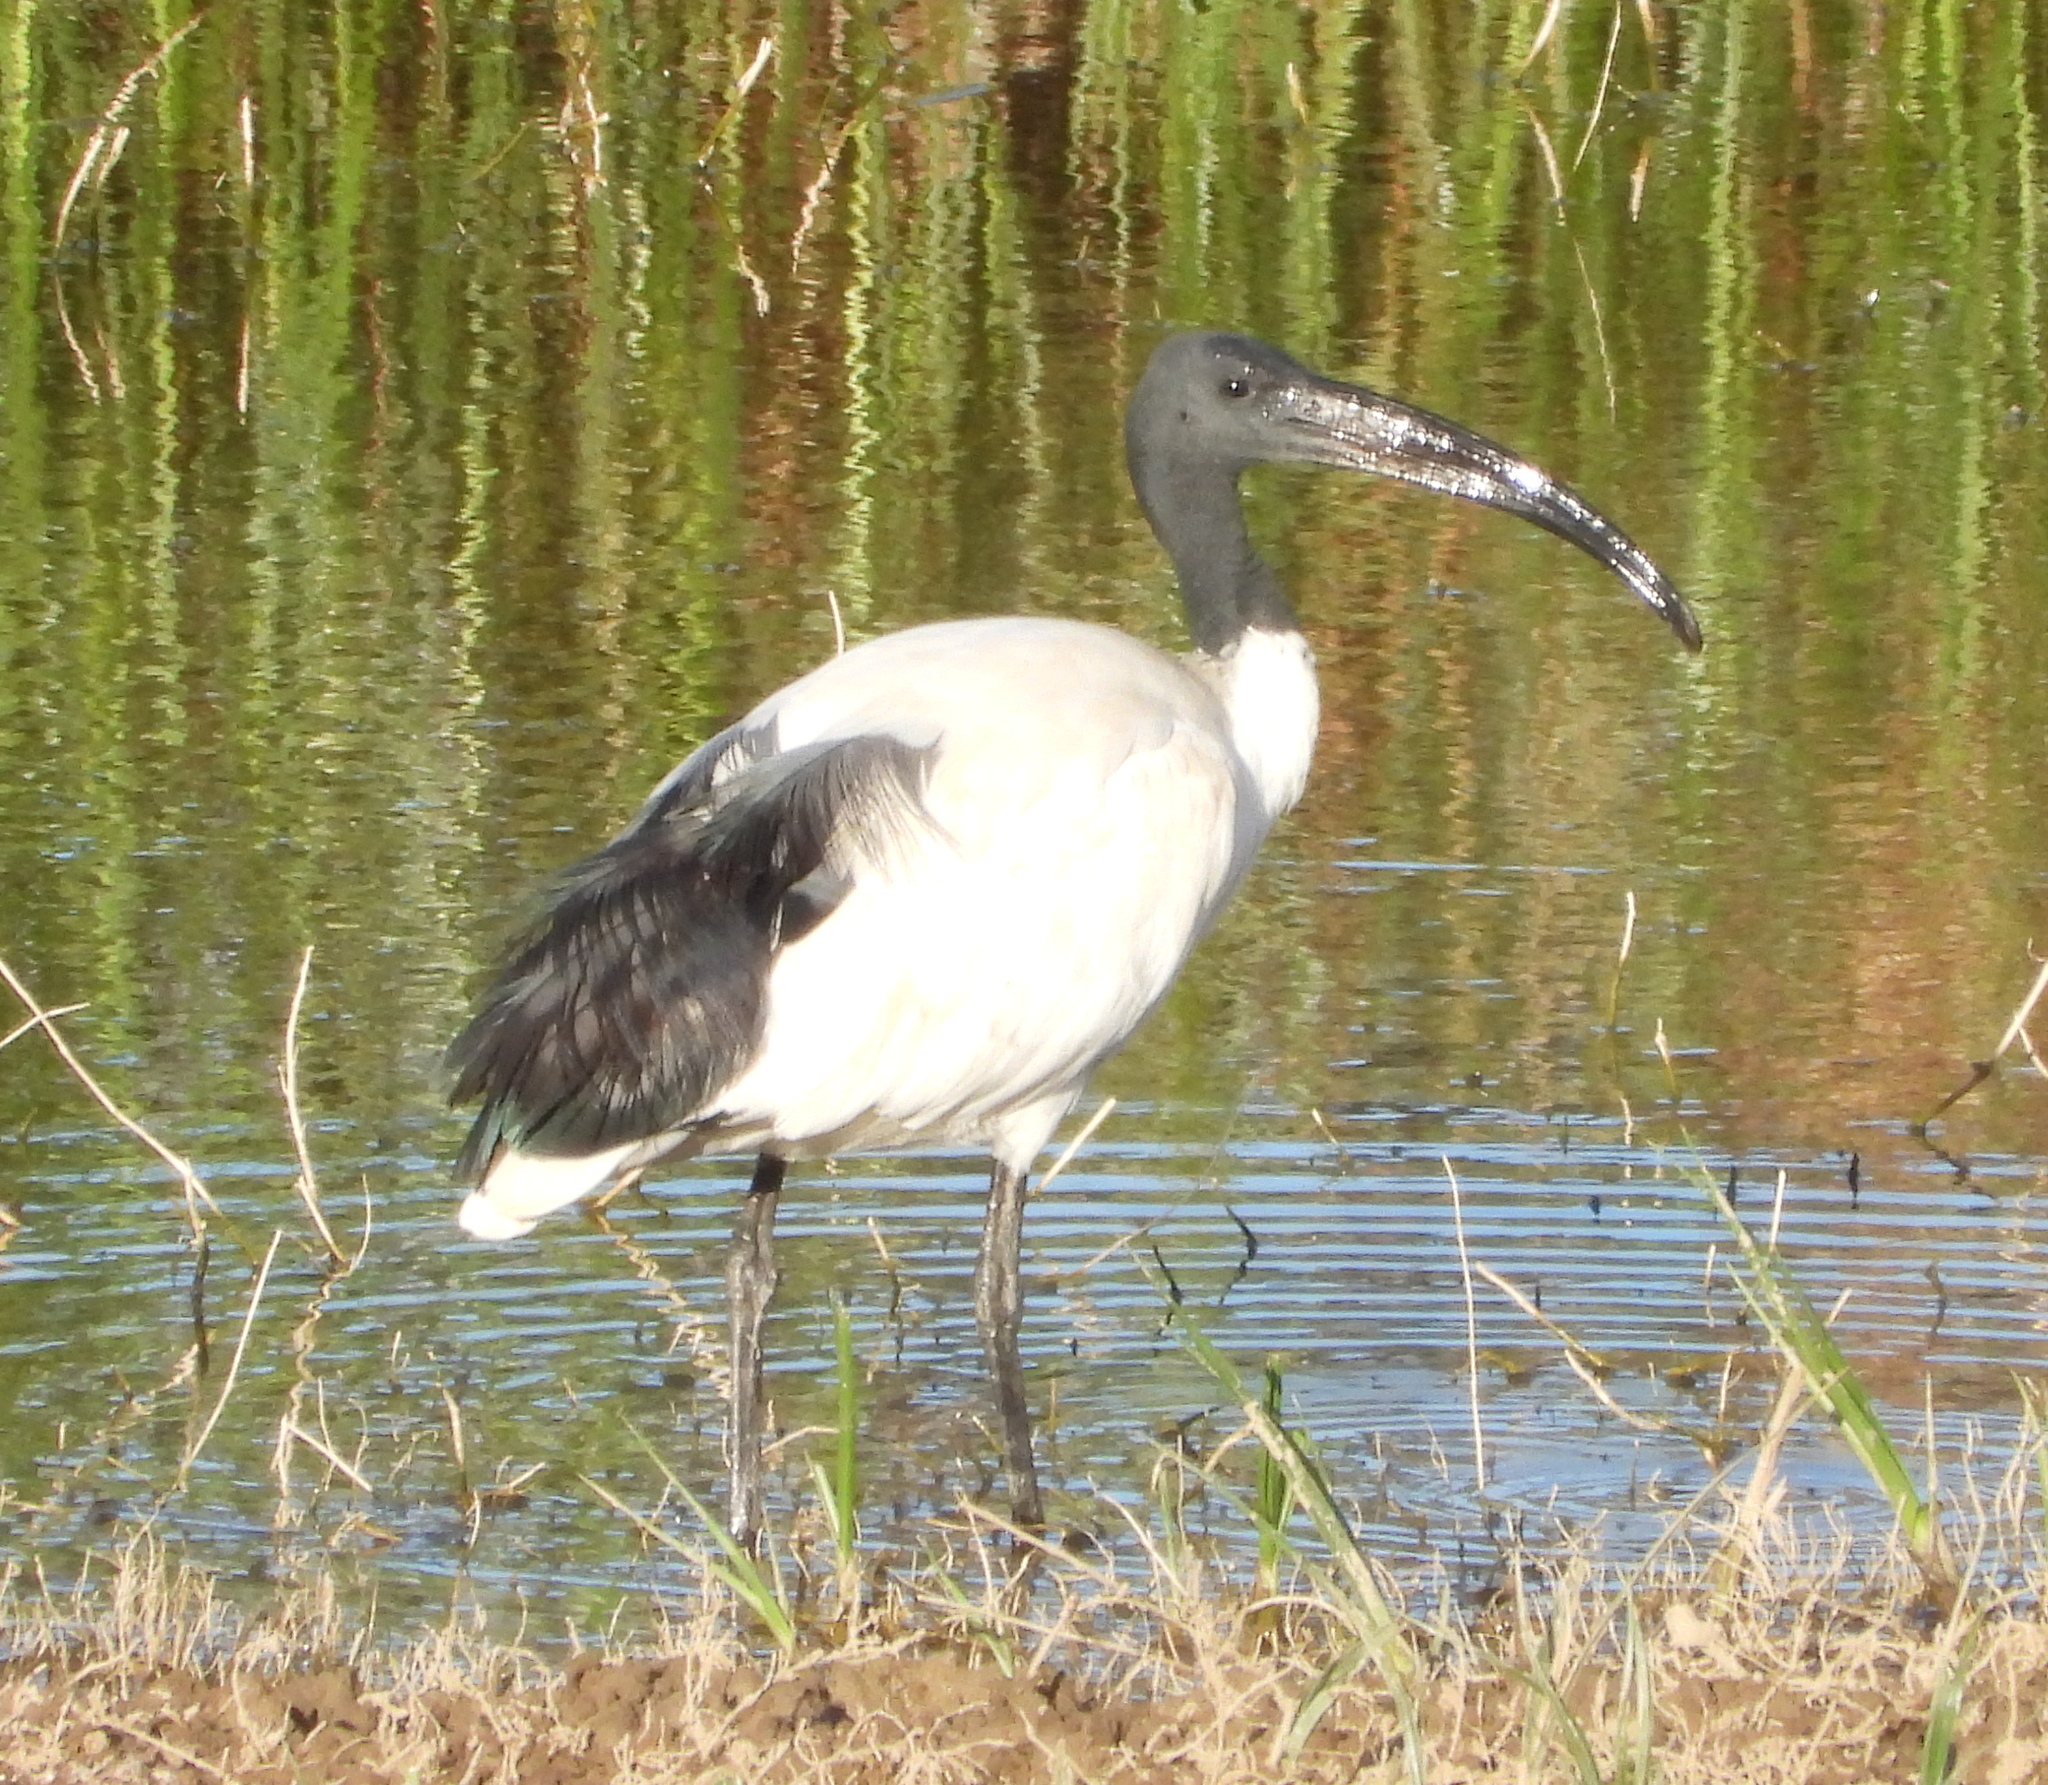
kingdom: Animalia
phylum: Chordata
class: Aves
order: Pelecaniformes
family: Threskiornithidae
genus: Threskiornis
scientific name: Threskiornis aethiopicus
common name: Sacred ibis
